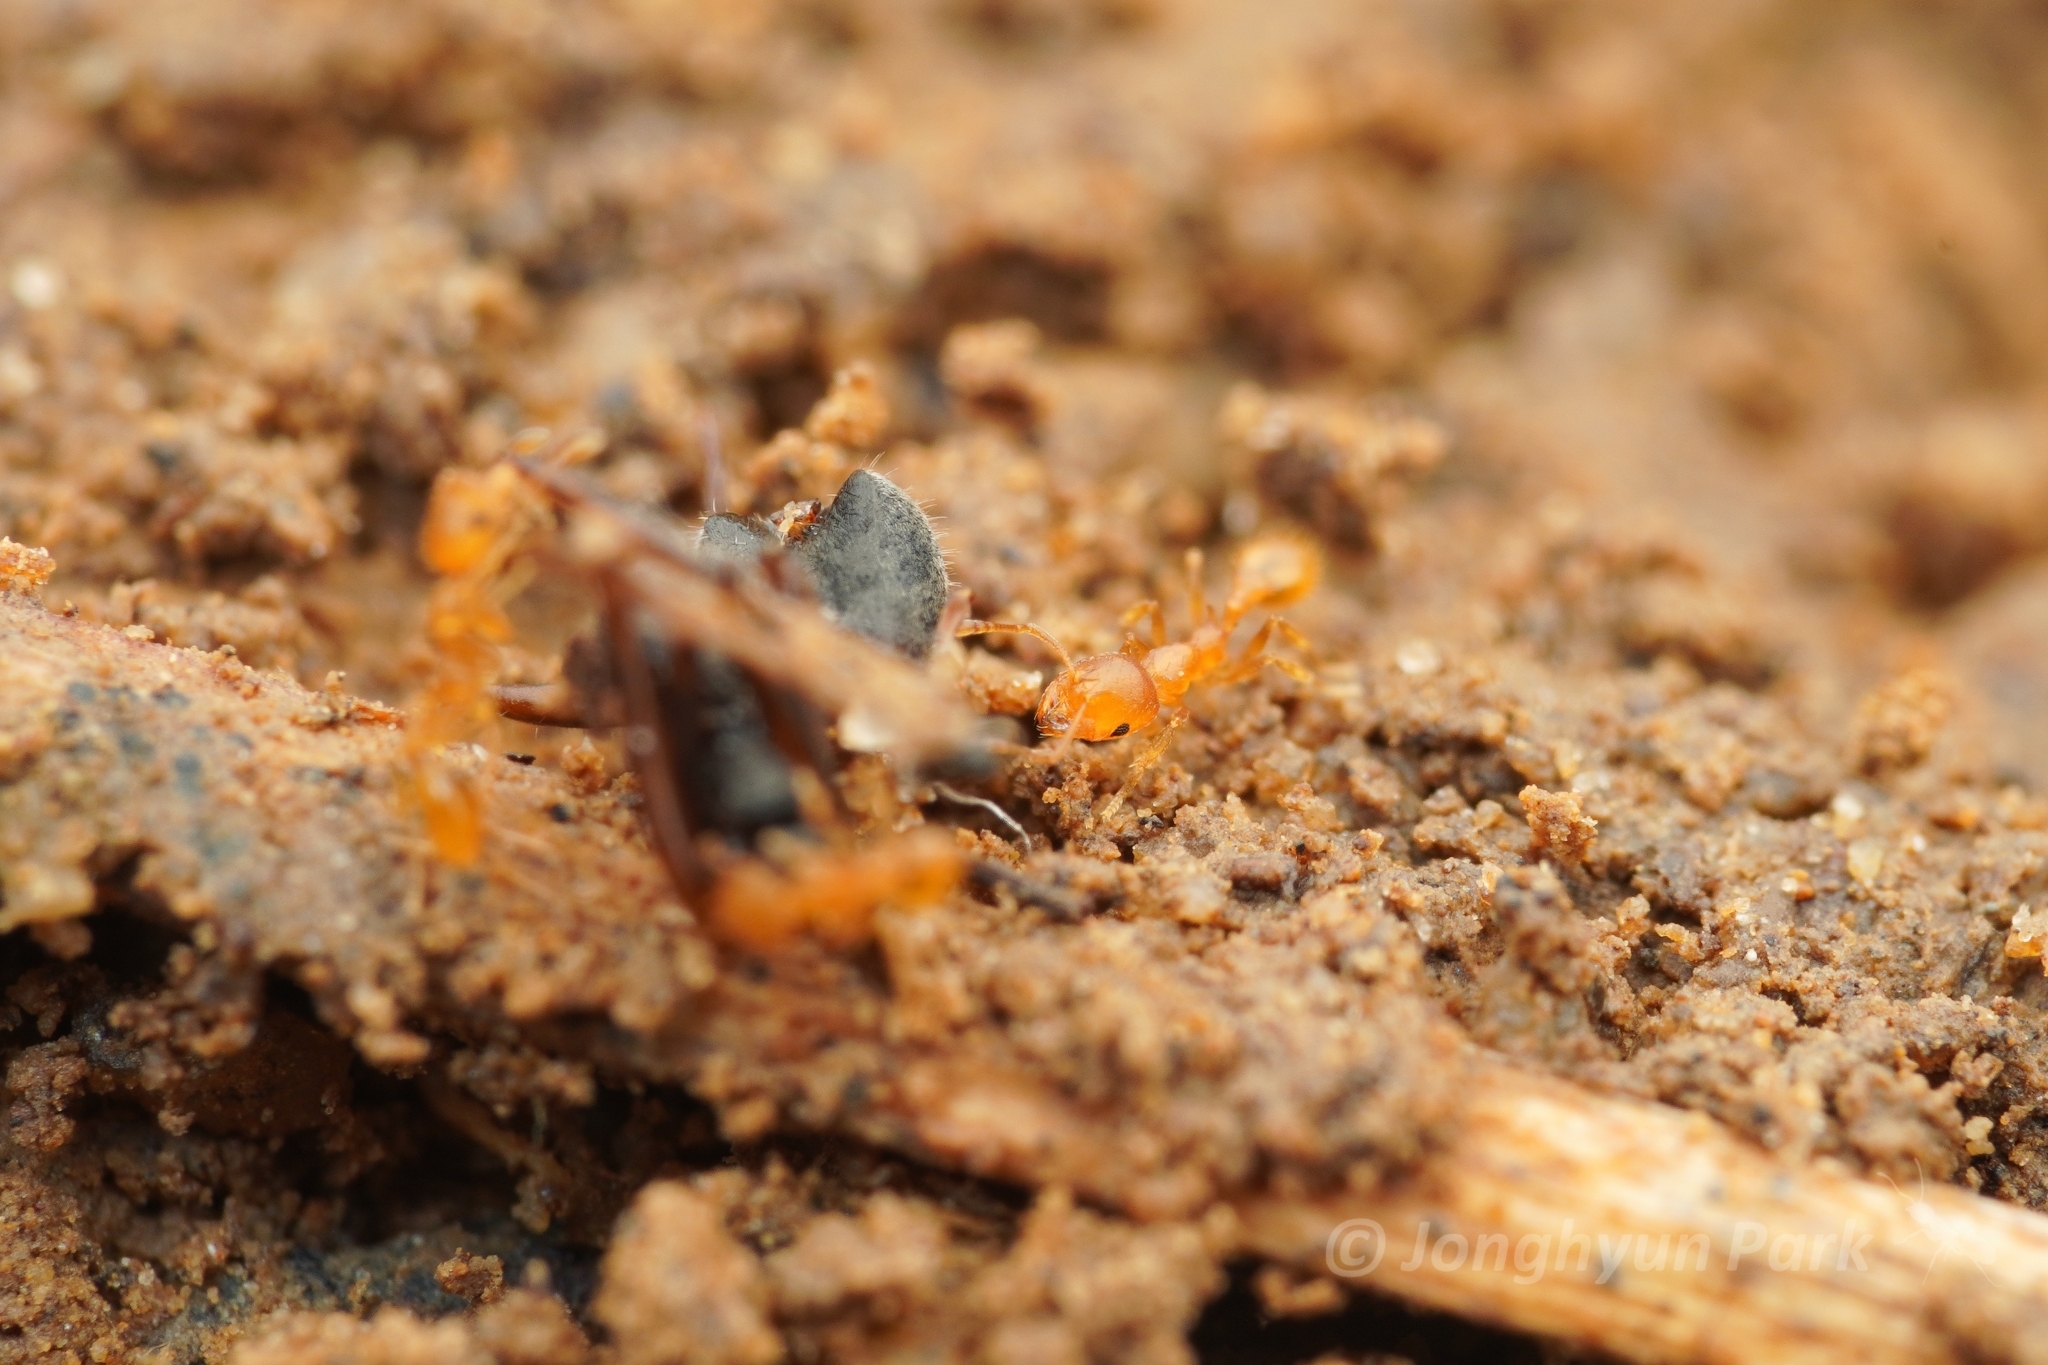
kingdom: Animalia
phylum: Arthropoda
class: Insecta
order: Hymenoptera
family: Formicidae
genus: Recurvidris
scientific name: Recurvidris recurvispinosa
